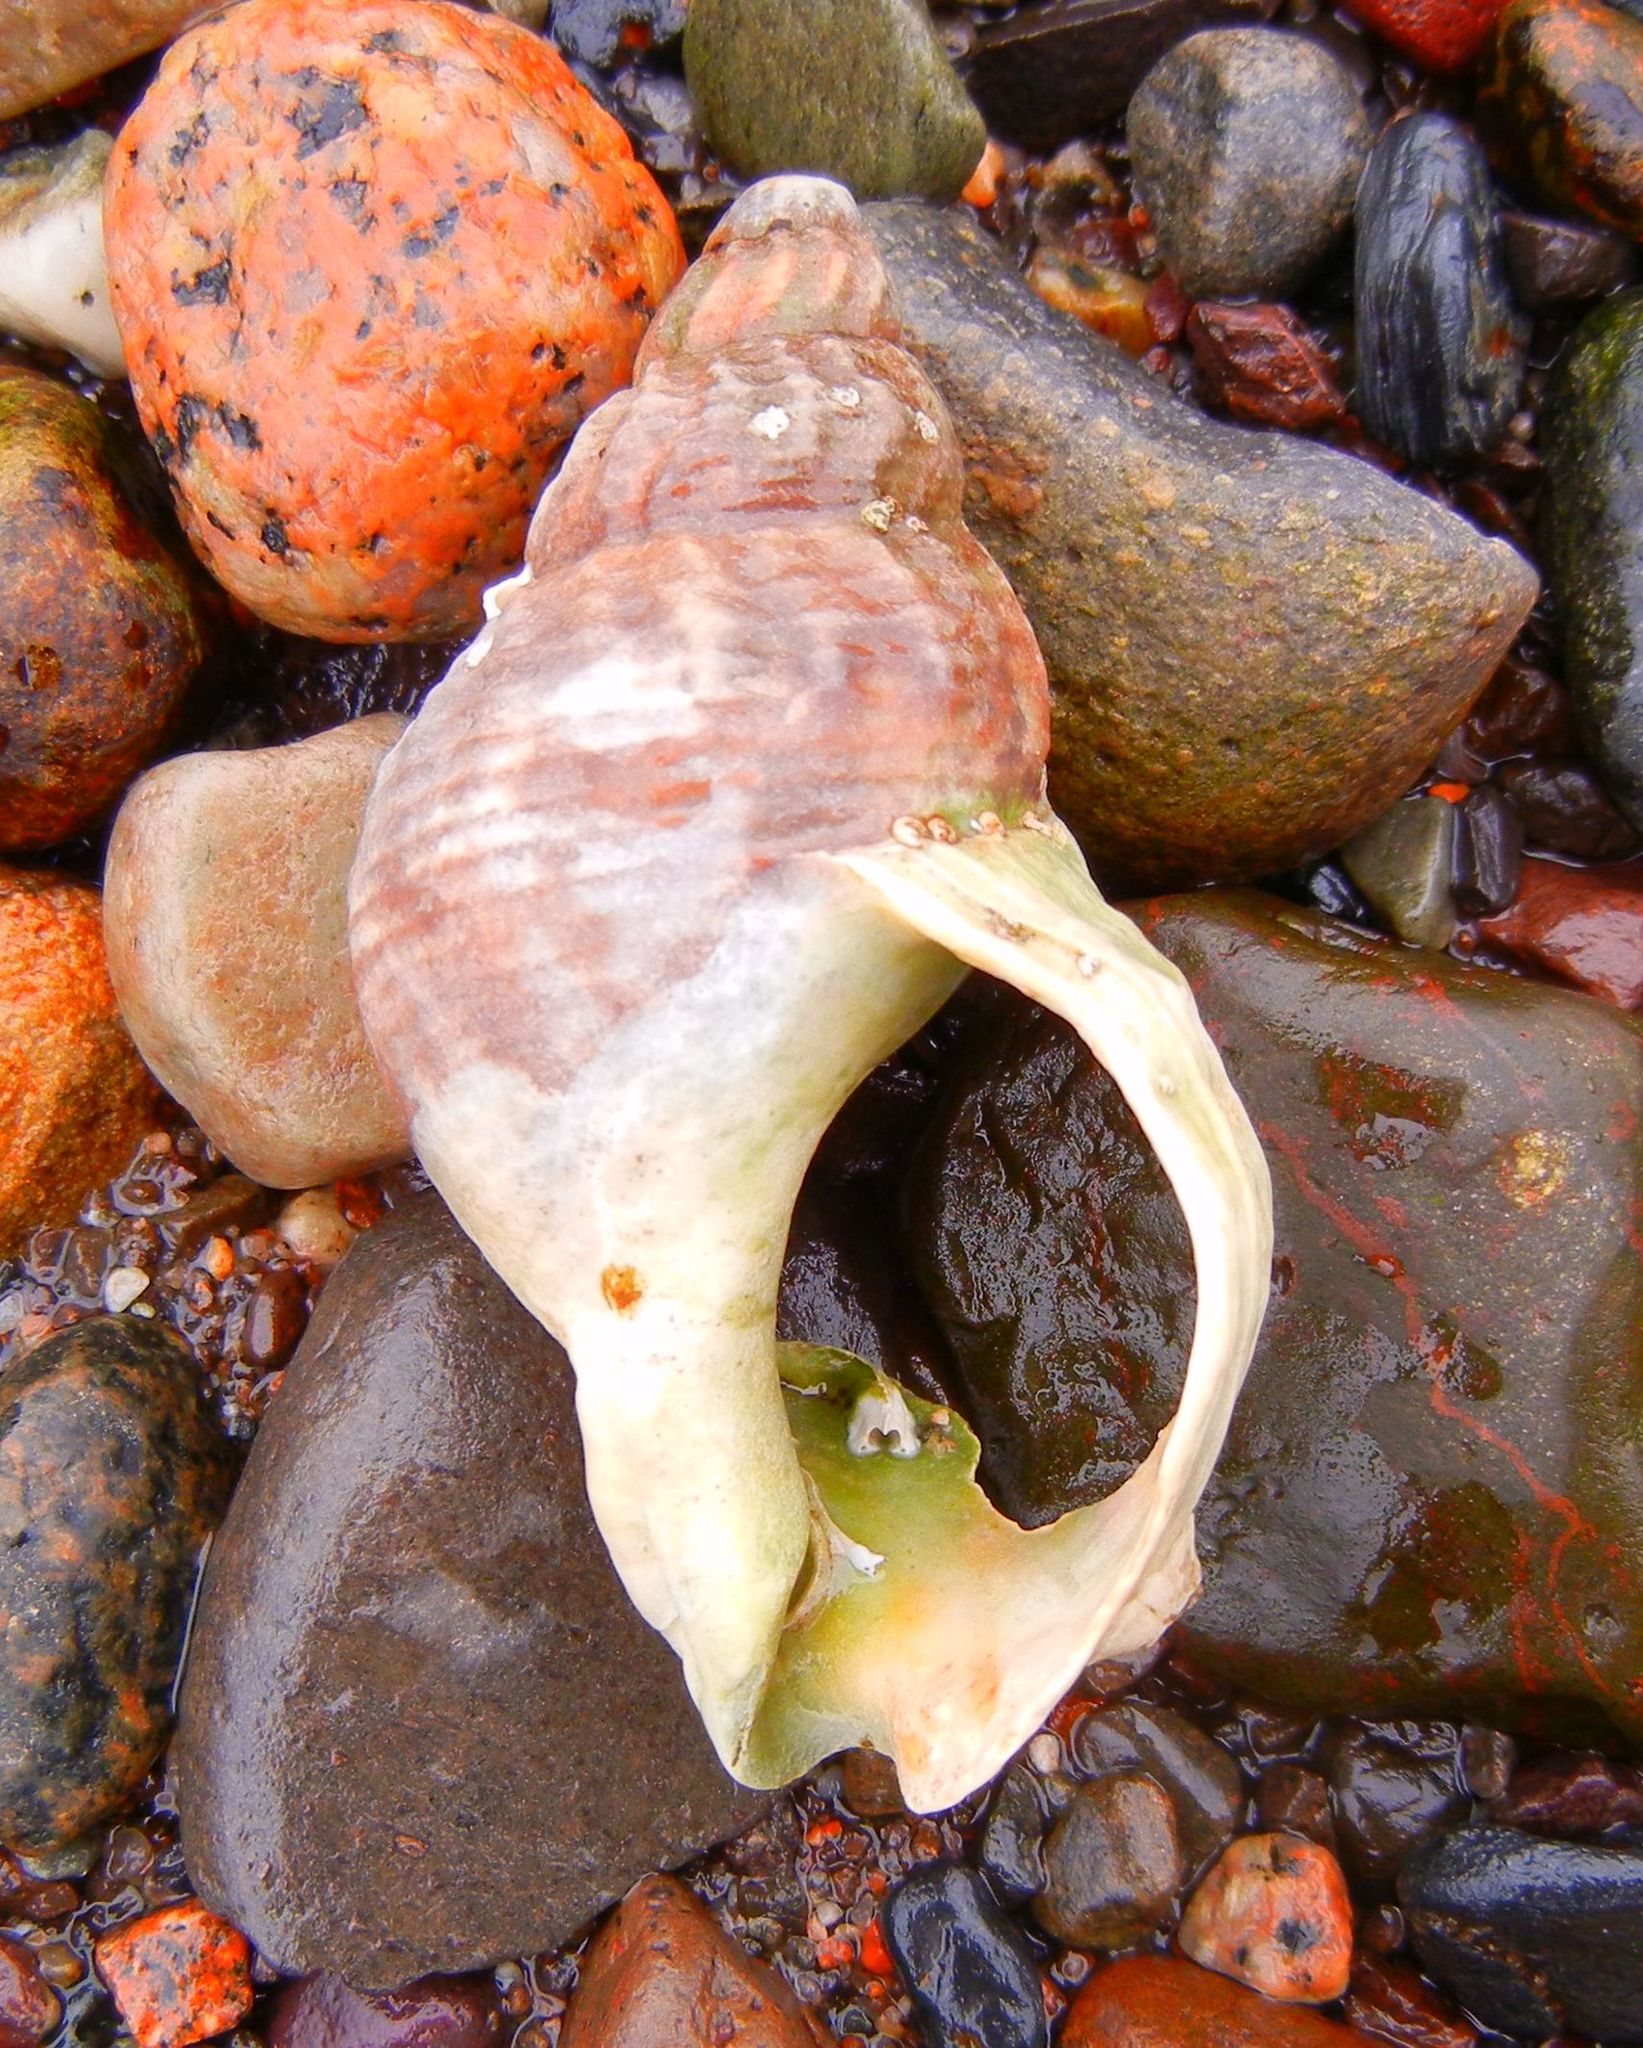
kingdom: Animalia
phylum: Mollusca
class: Gastropoda
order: Neogastropoda
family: Buccinidae
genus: Buccinum
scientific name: Buccinum undatum
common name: Common whelk
